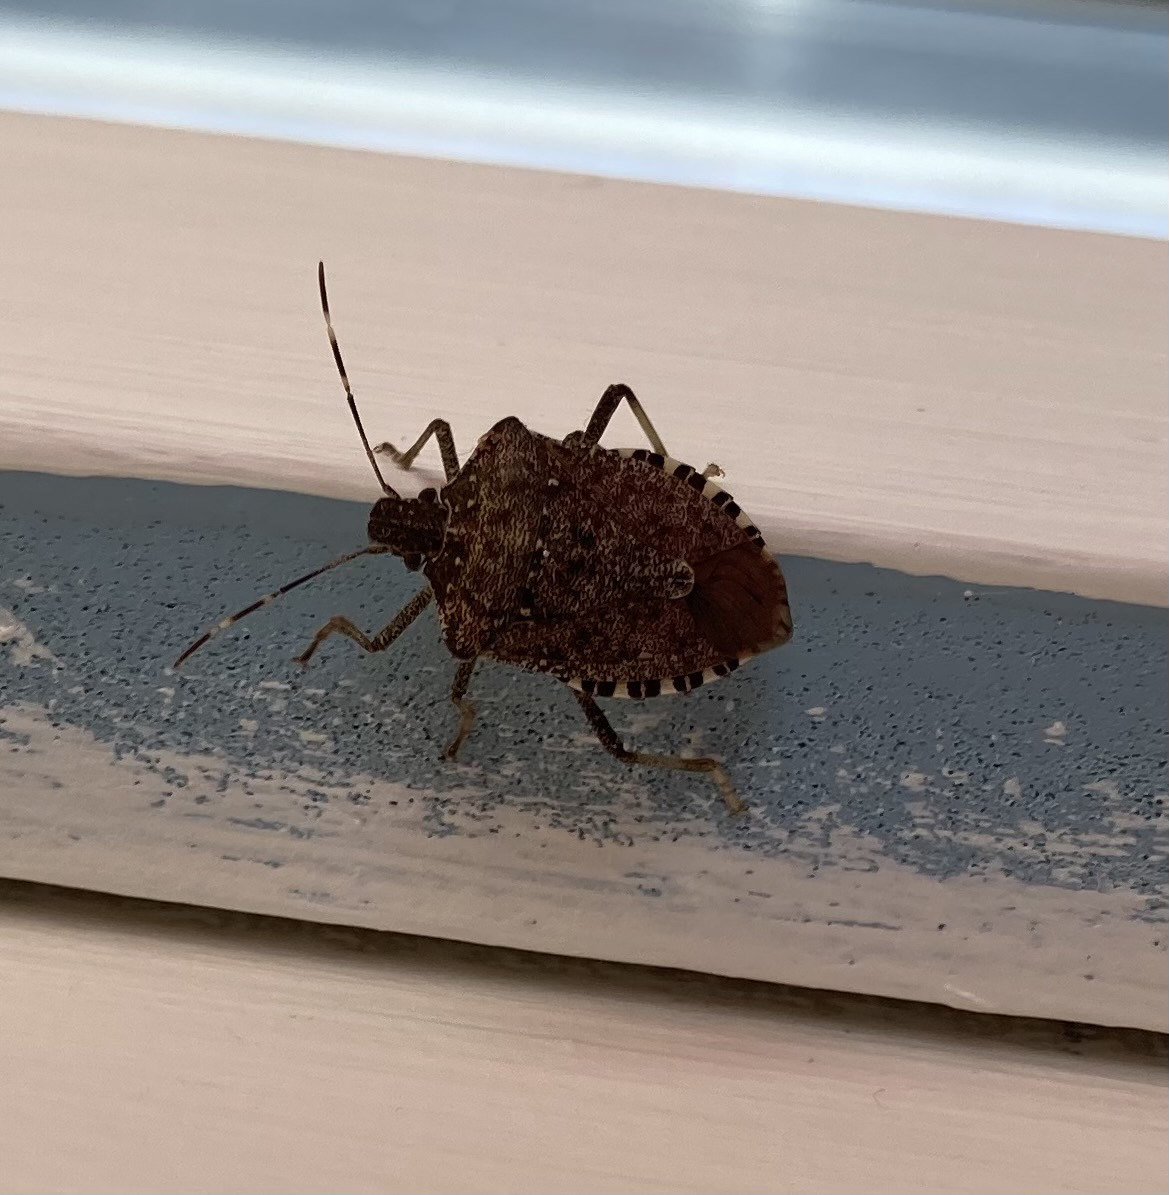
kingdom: Animalia
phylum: Arthropoda
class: Insecta
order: Hemiptera
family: Pentatomidae
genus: Halyomorpha
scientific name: Halyomorpha halys
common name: Brown marmorated stink bug
